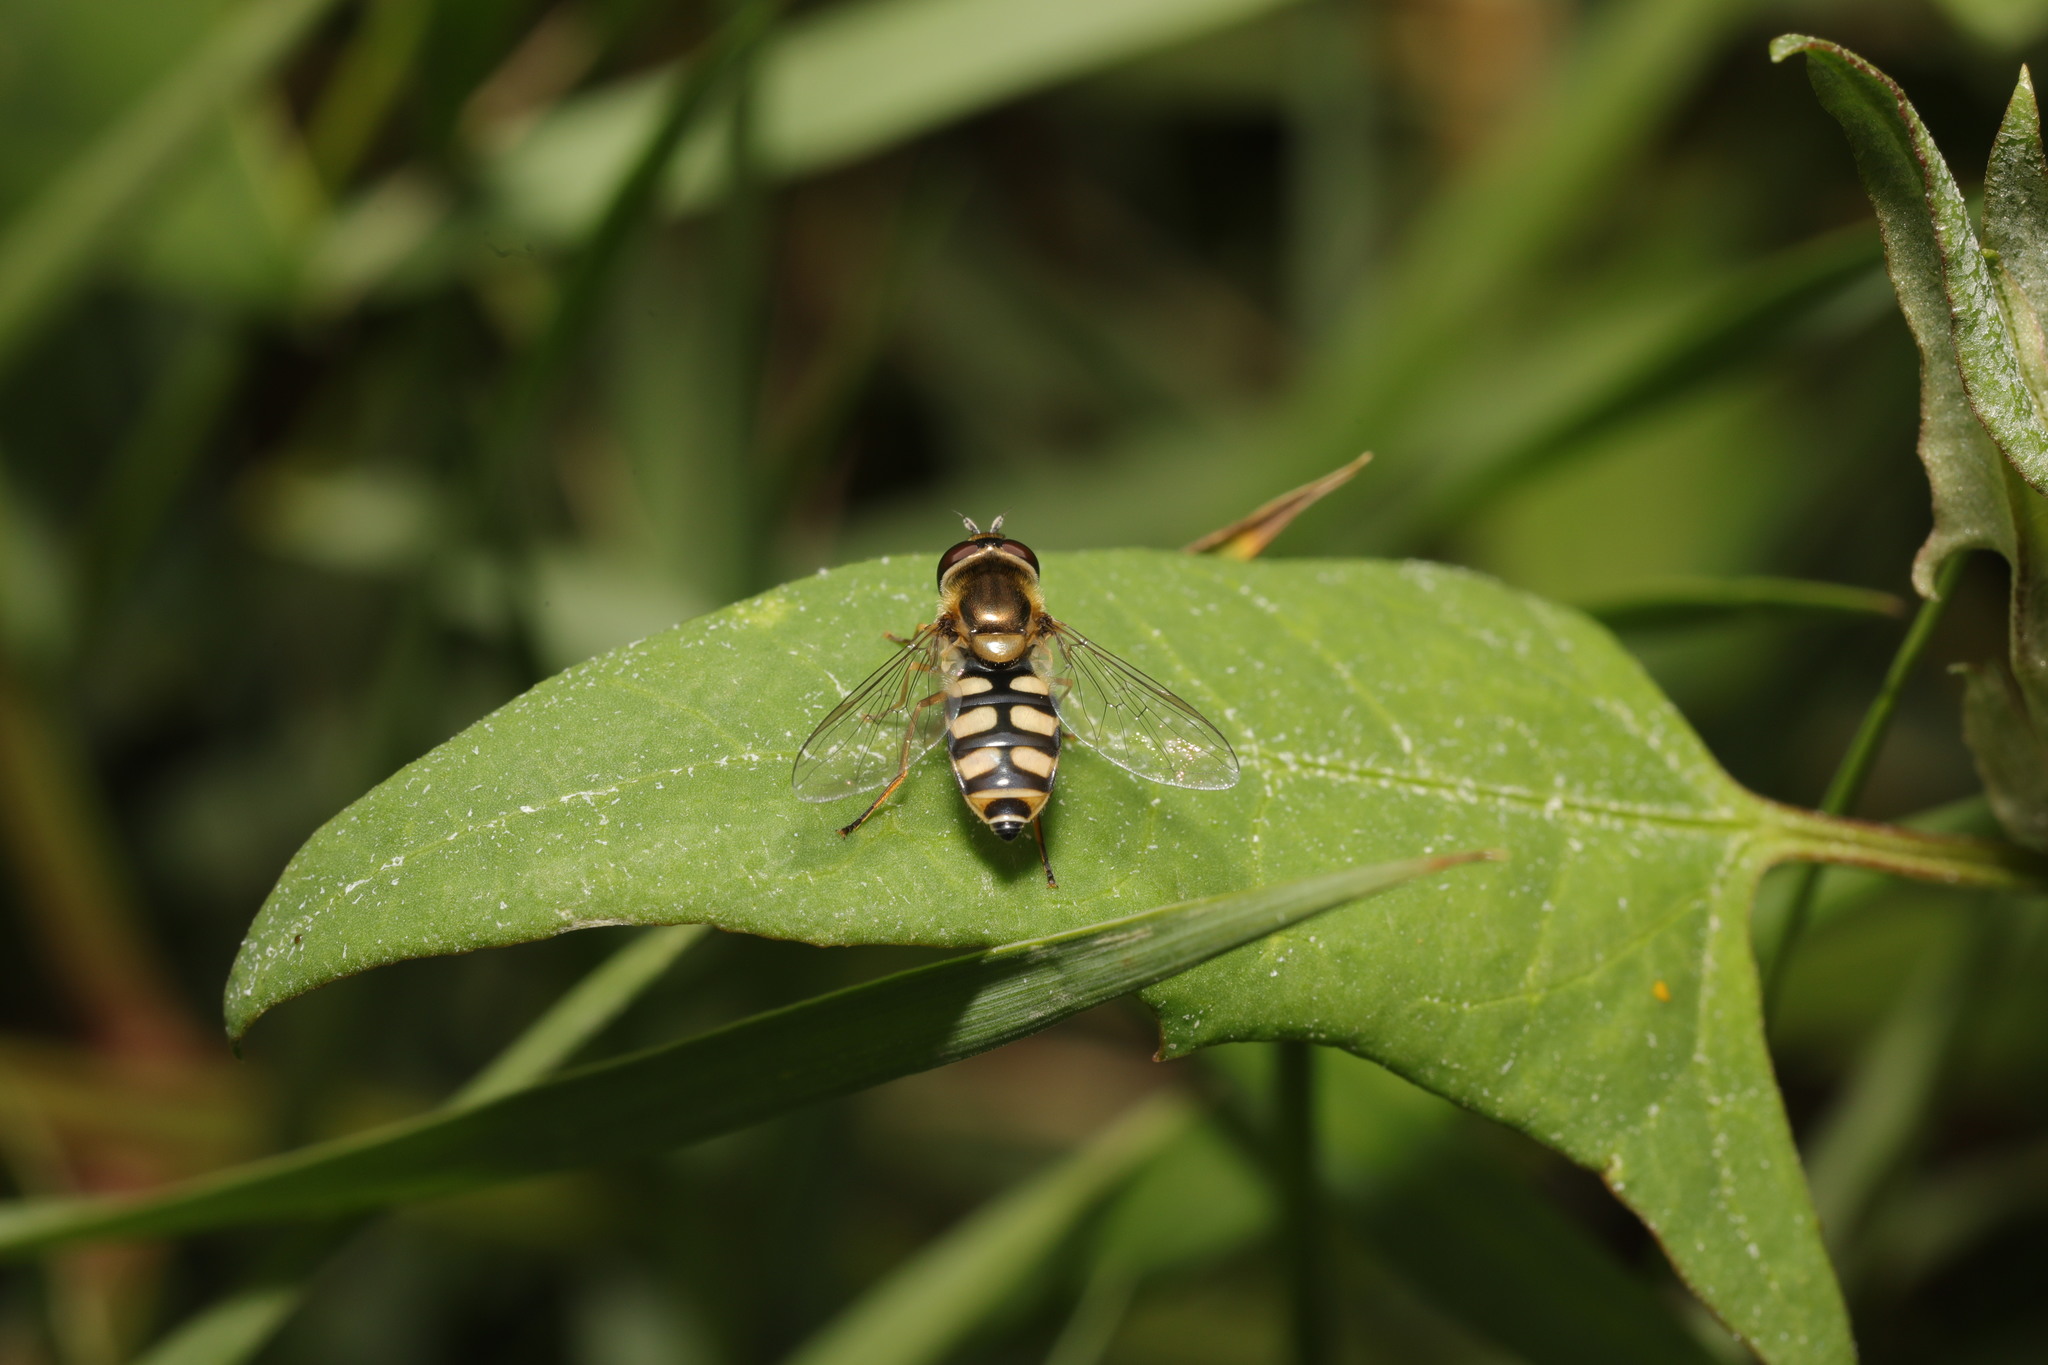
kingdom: Animalia
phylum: Arthropoda
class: Insecta
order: Diptera
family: Syrphidae
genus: Eupeodes
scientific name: Eupeodes corollae
